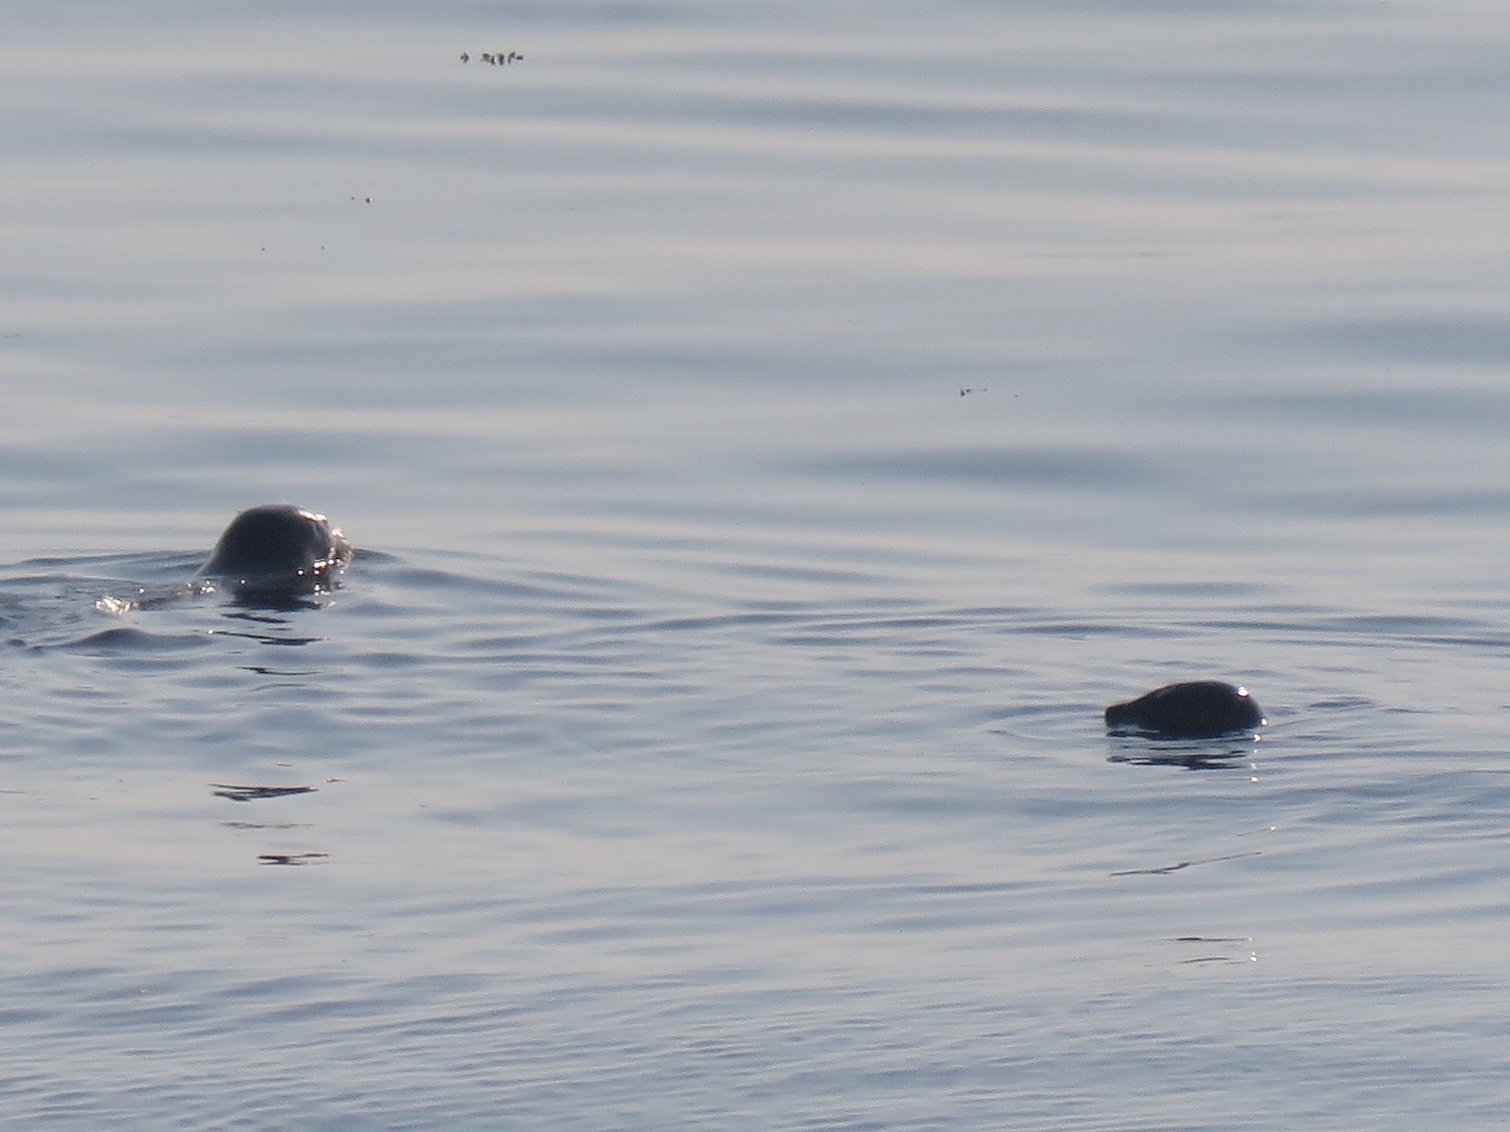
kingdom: Animalia
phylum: Chordata
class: Mammalia
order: Carnivora
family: Phocidae
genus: Phoca
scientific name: Phoca vitulina
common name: Harbor seal
